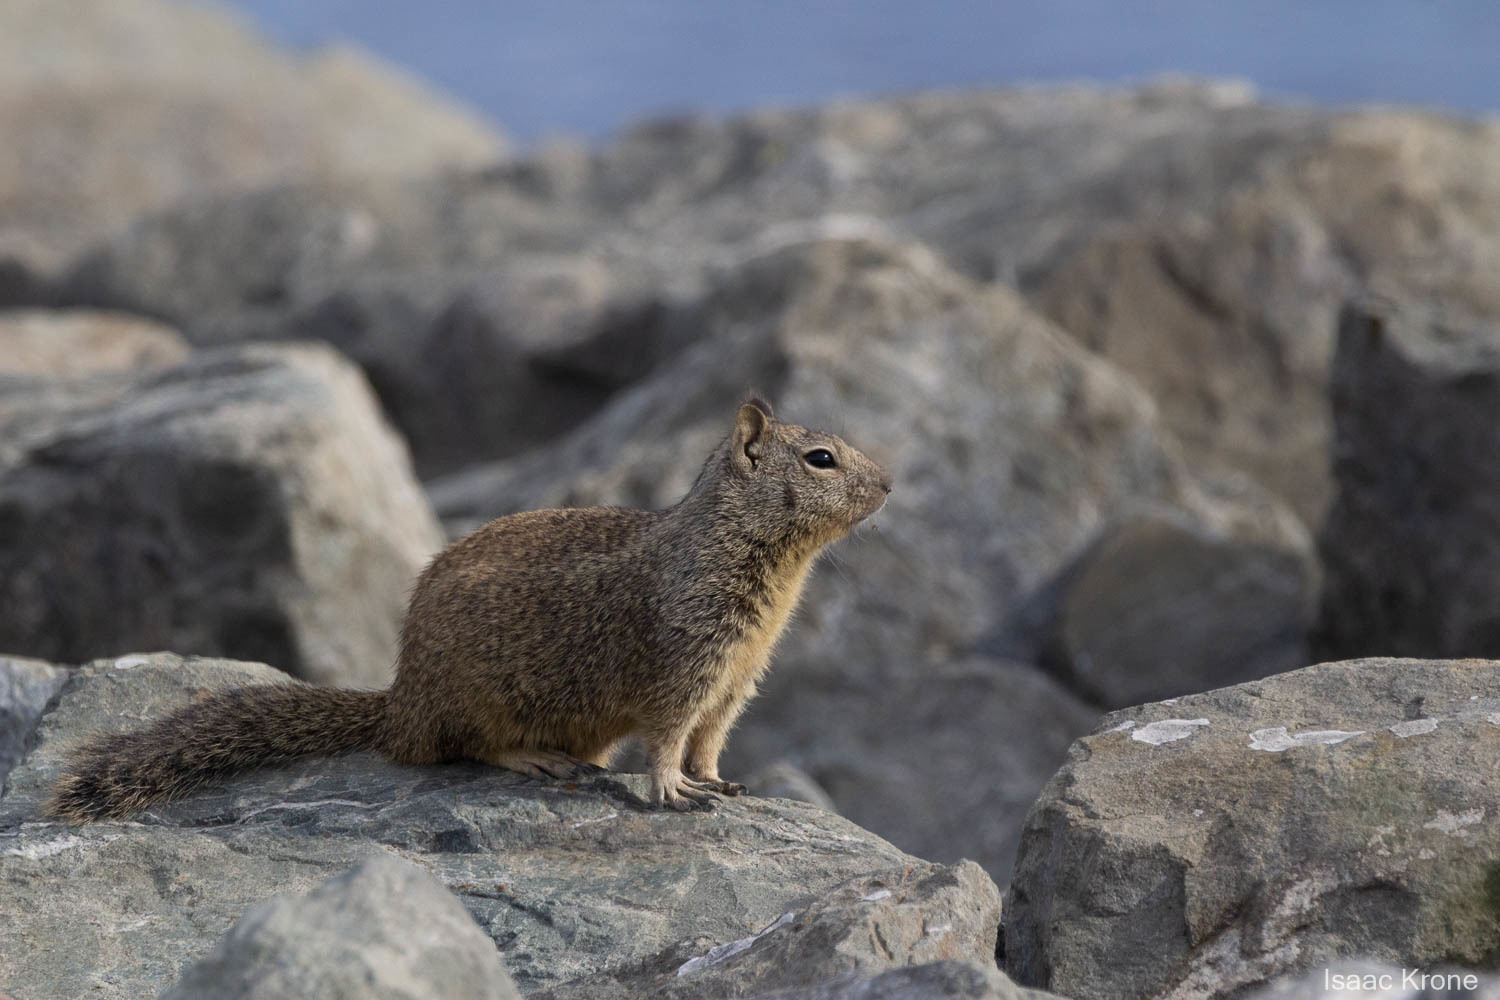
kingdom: Animalia
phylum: Chordata
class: Mammalia
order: Rodentia
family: Sciuridae
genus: Otospermophilus
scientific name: Otospermophilus beecheyi
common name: California ground squirrel
